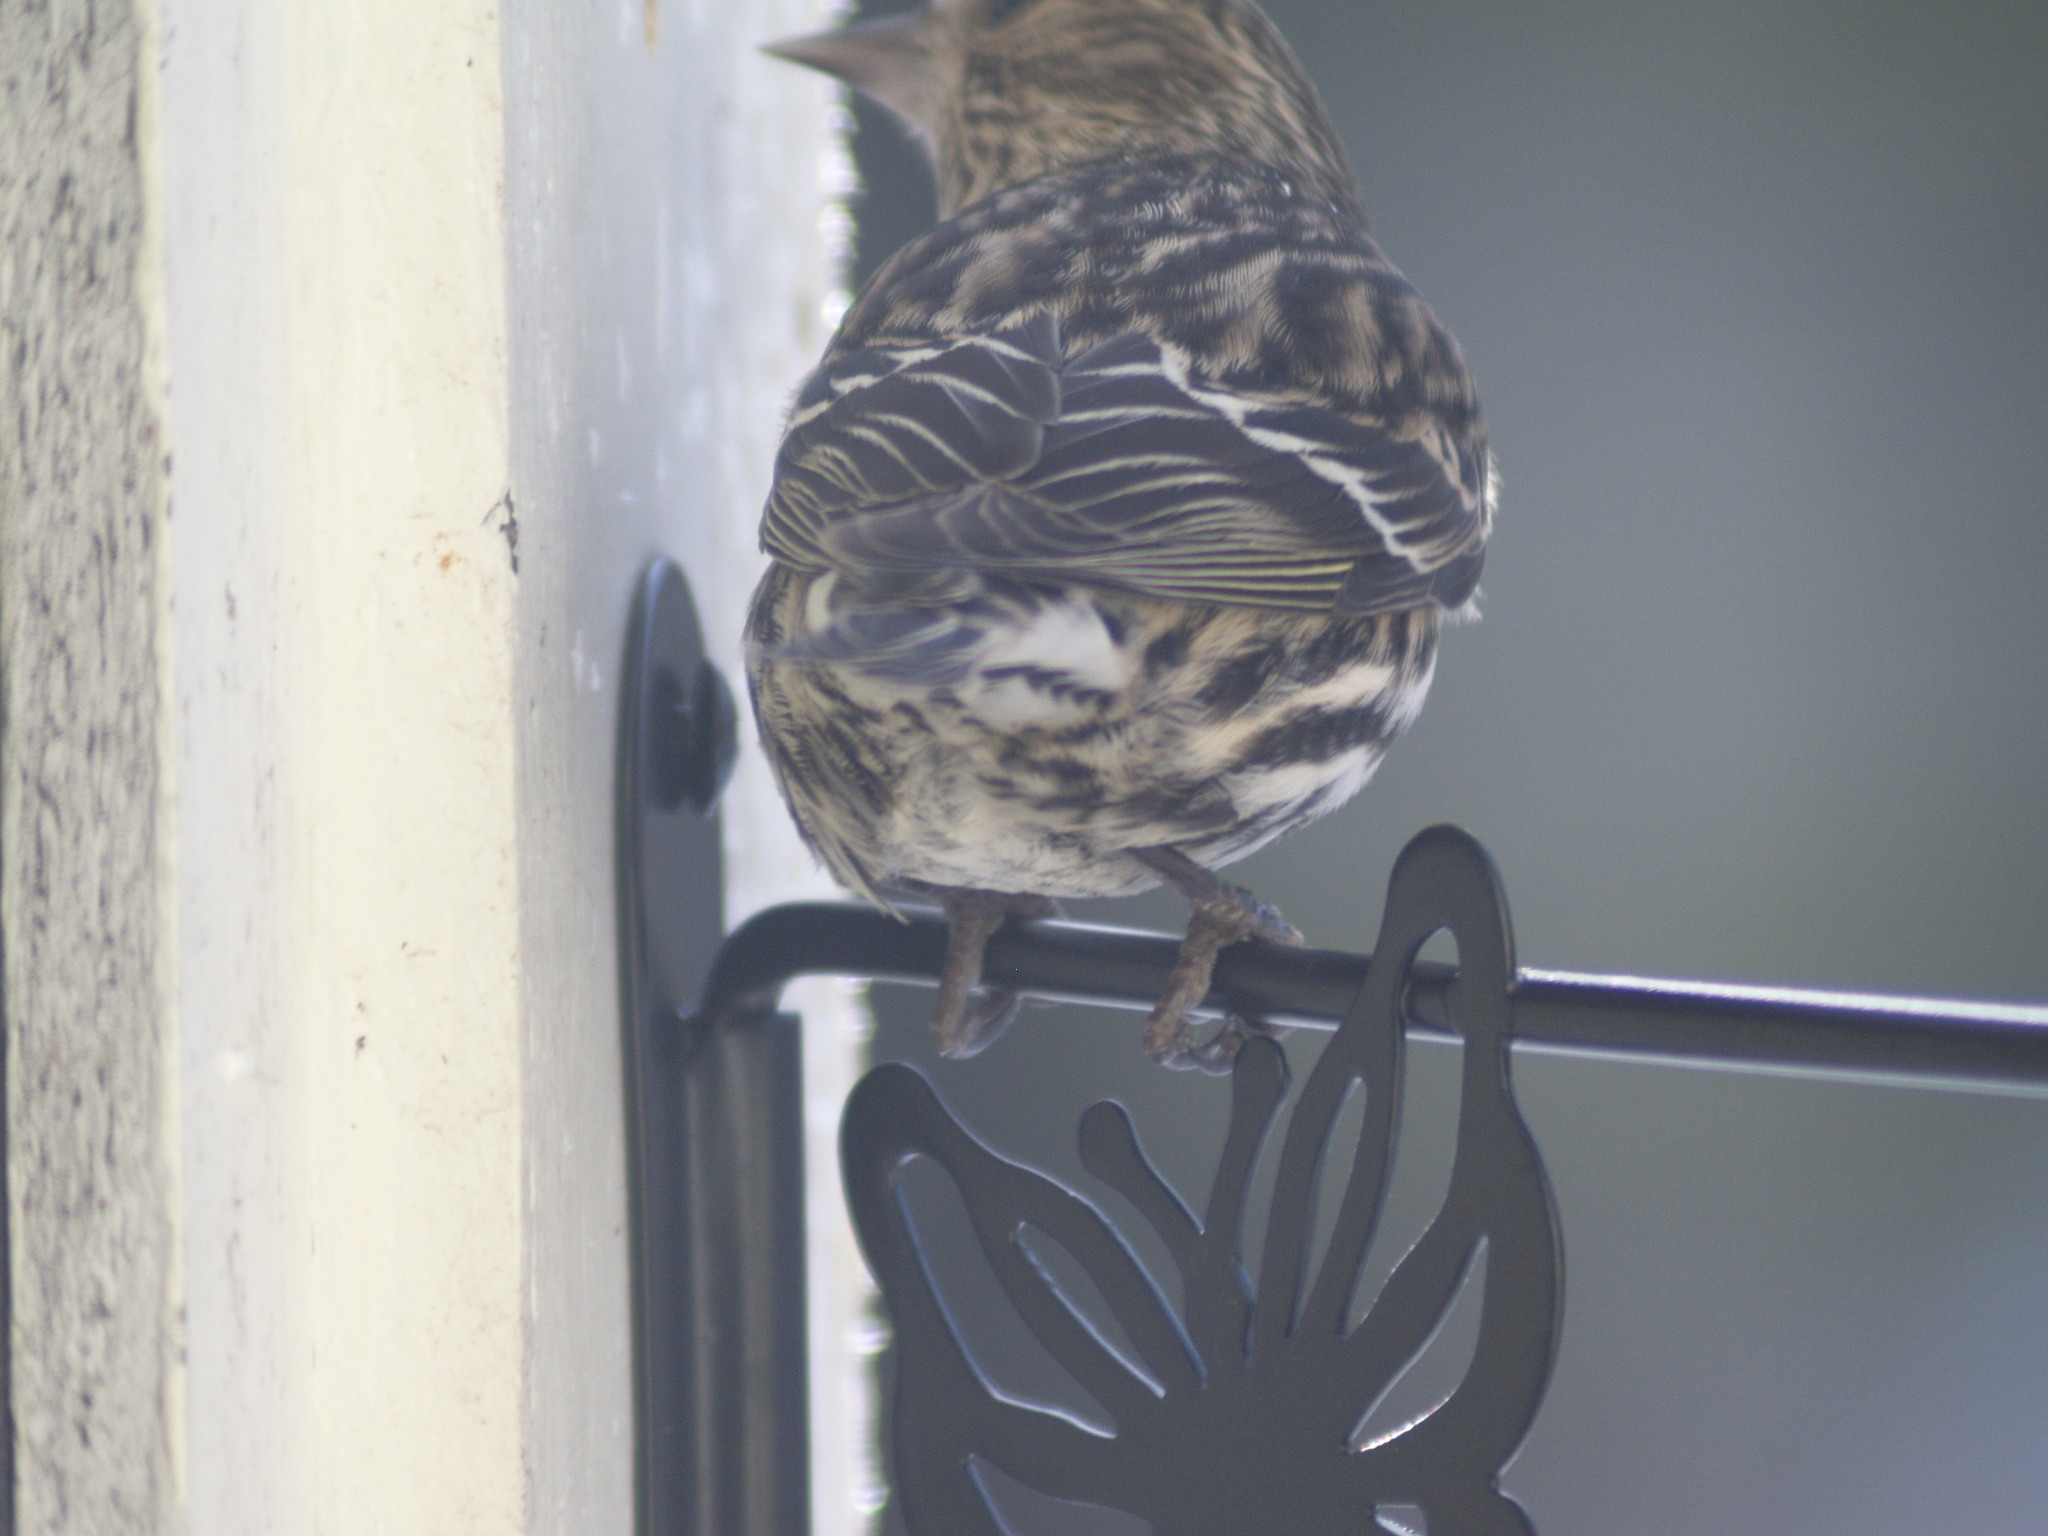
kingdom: Animalia
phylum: Chordata
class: Aves
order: Passeriformes
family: Fringillidae
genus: Spinus
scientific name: Spinus pinus
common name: Pine siskin
